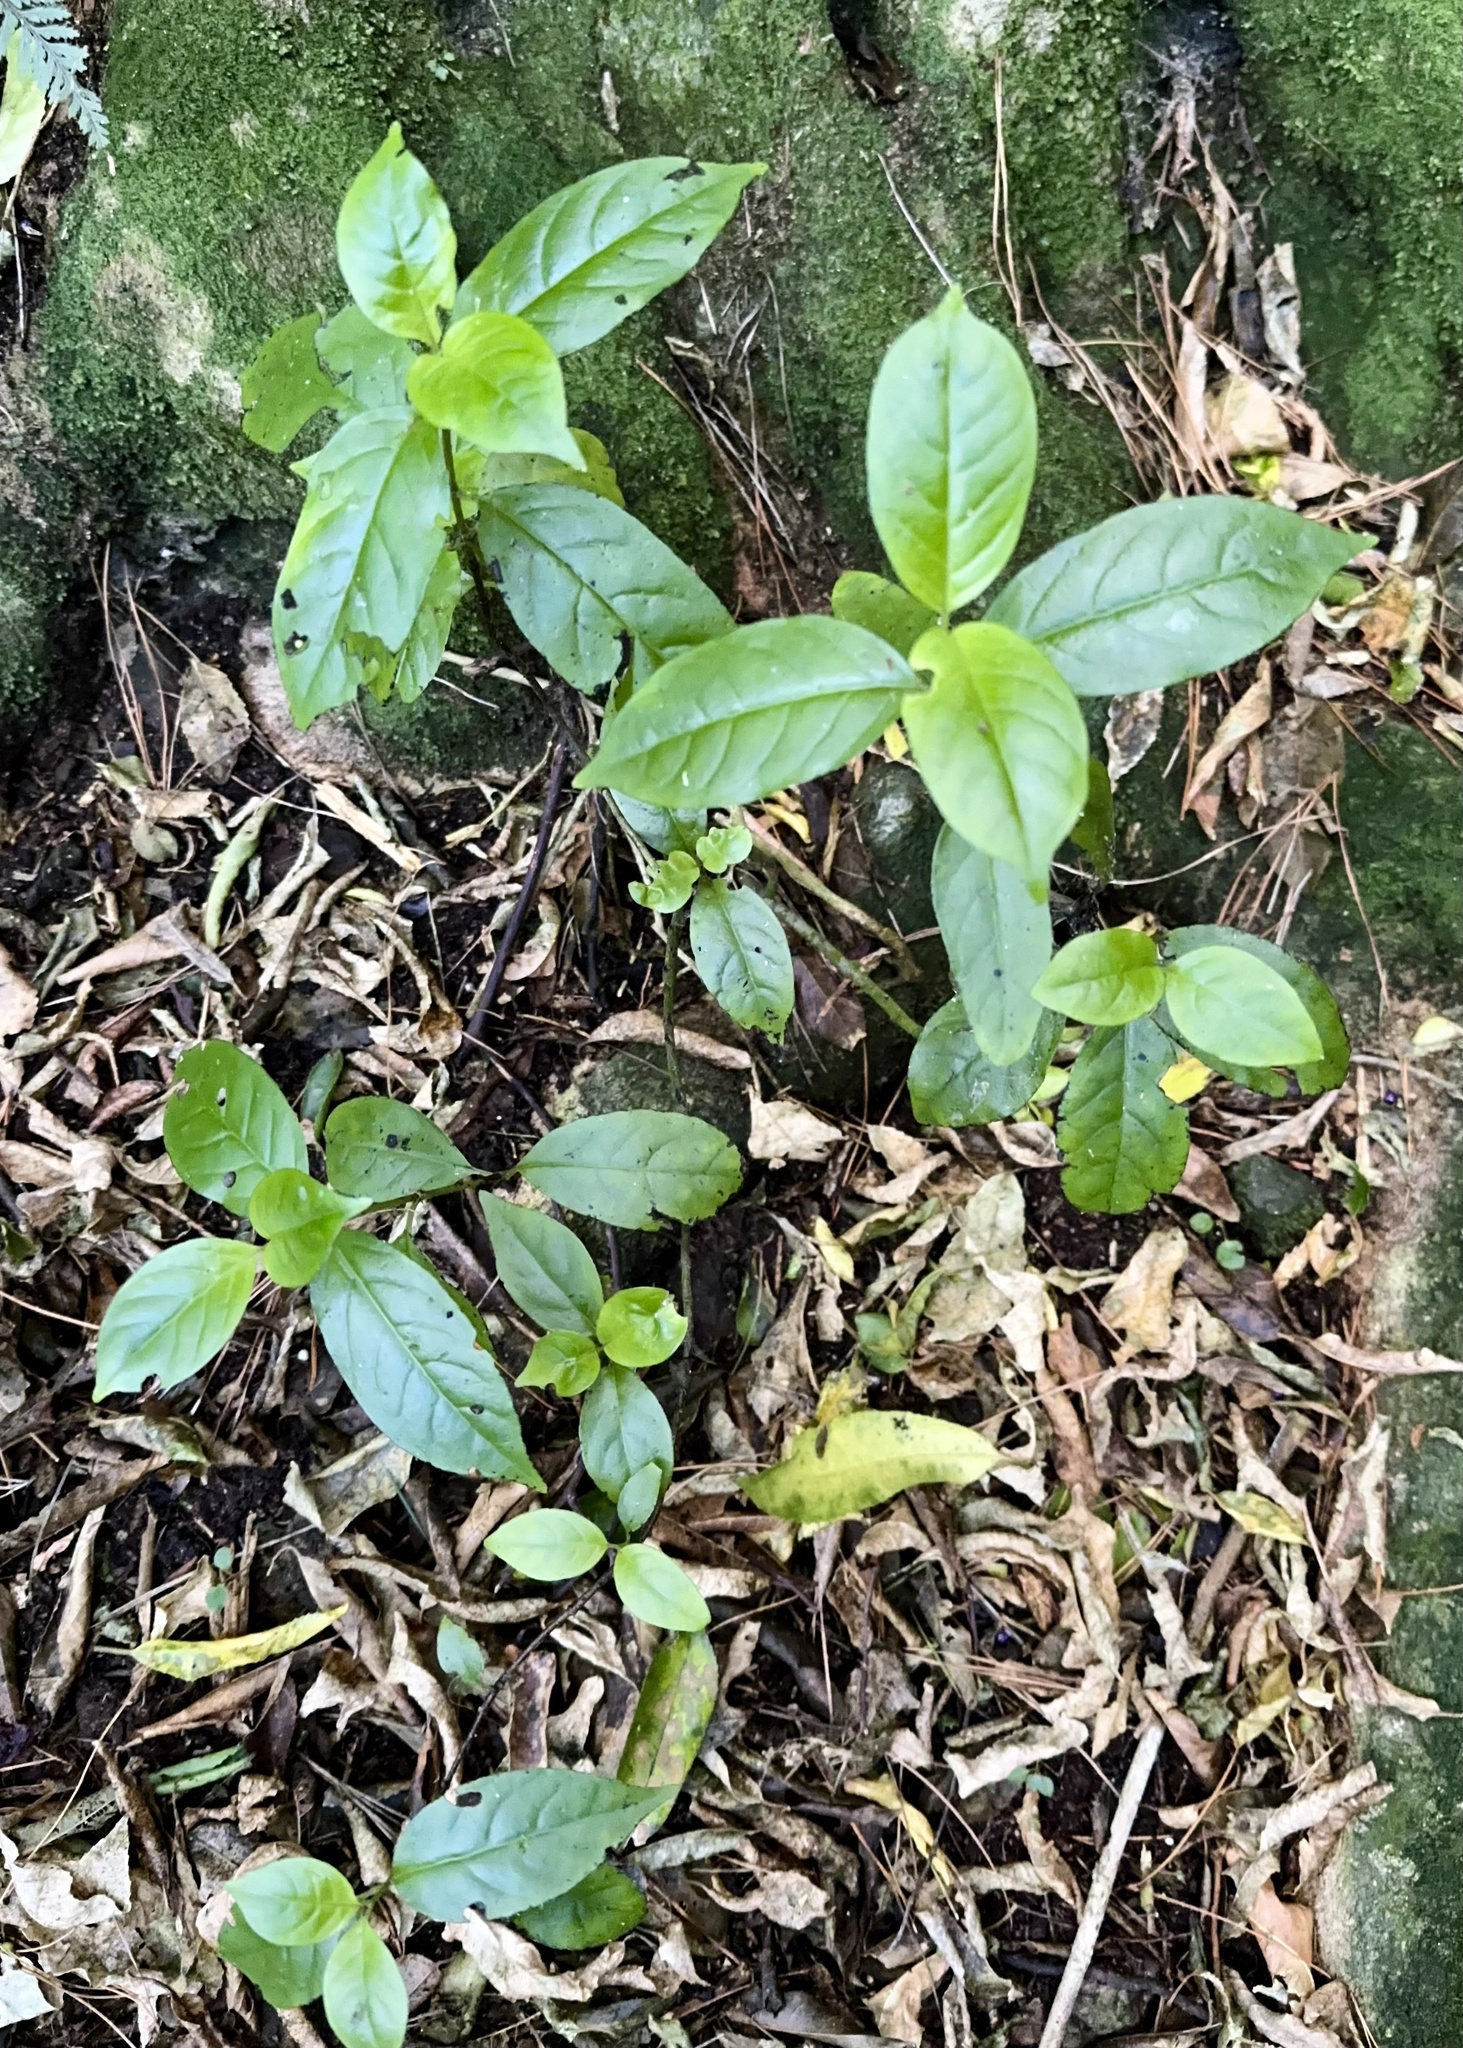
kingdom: Plantae
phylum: Tracheophyta
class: Magnoliopsida
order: Gentianales
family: Loganiaceae
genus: Geniostoma
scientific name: Geniostoma ligustrifolium
